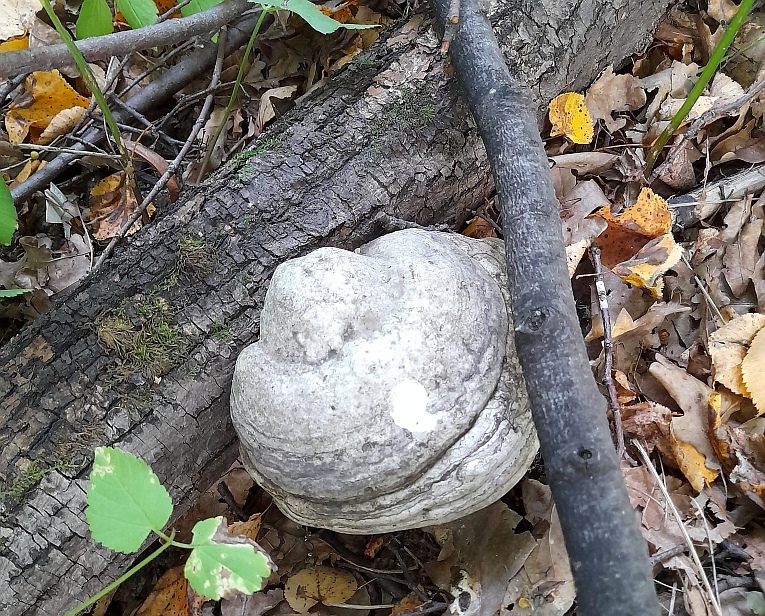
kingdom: Fungi
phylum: Basidiomycota
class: Agaricomycetes
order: Polyporales
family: Polyporaceae
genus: Fomes
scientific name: Fomes fomentarius
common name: Hoof fungus
